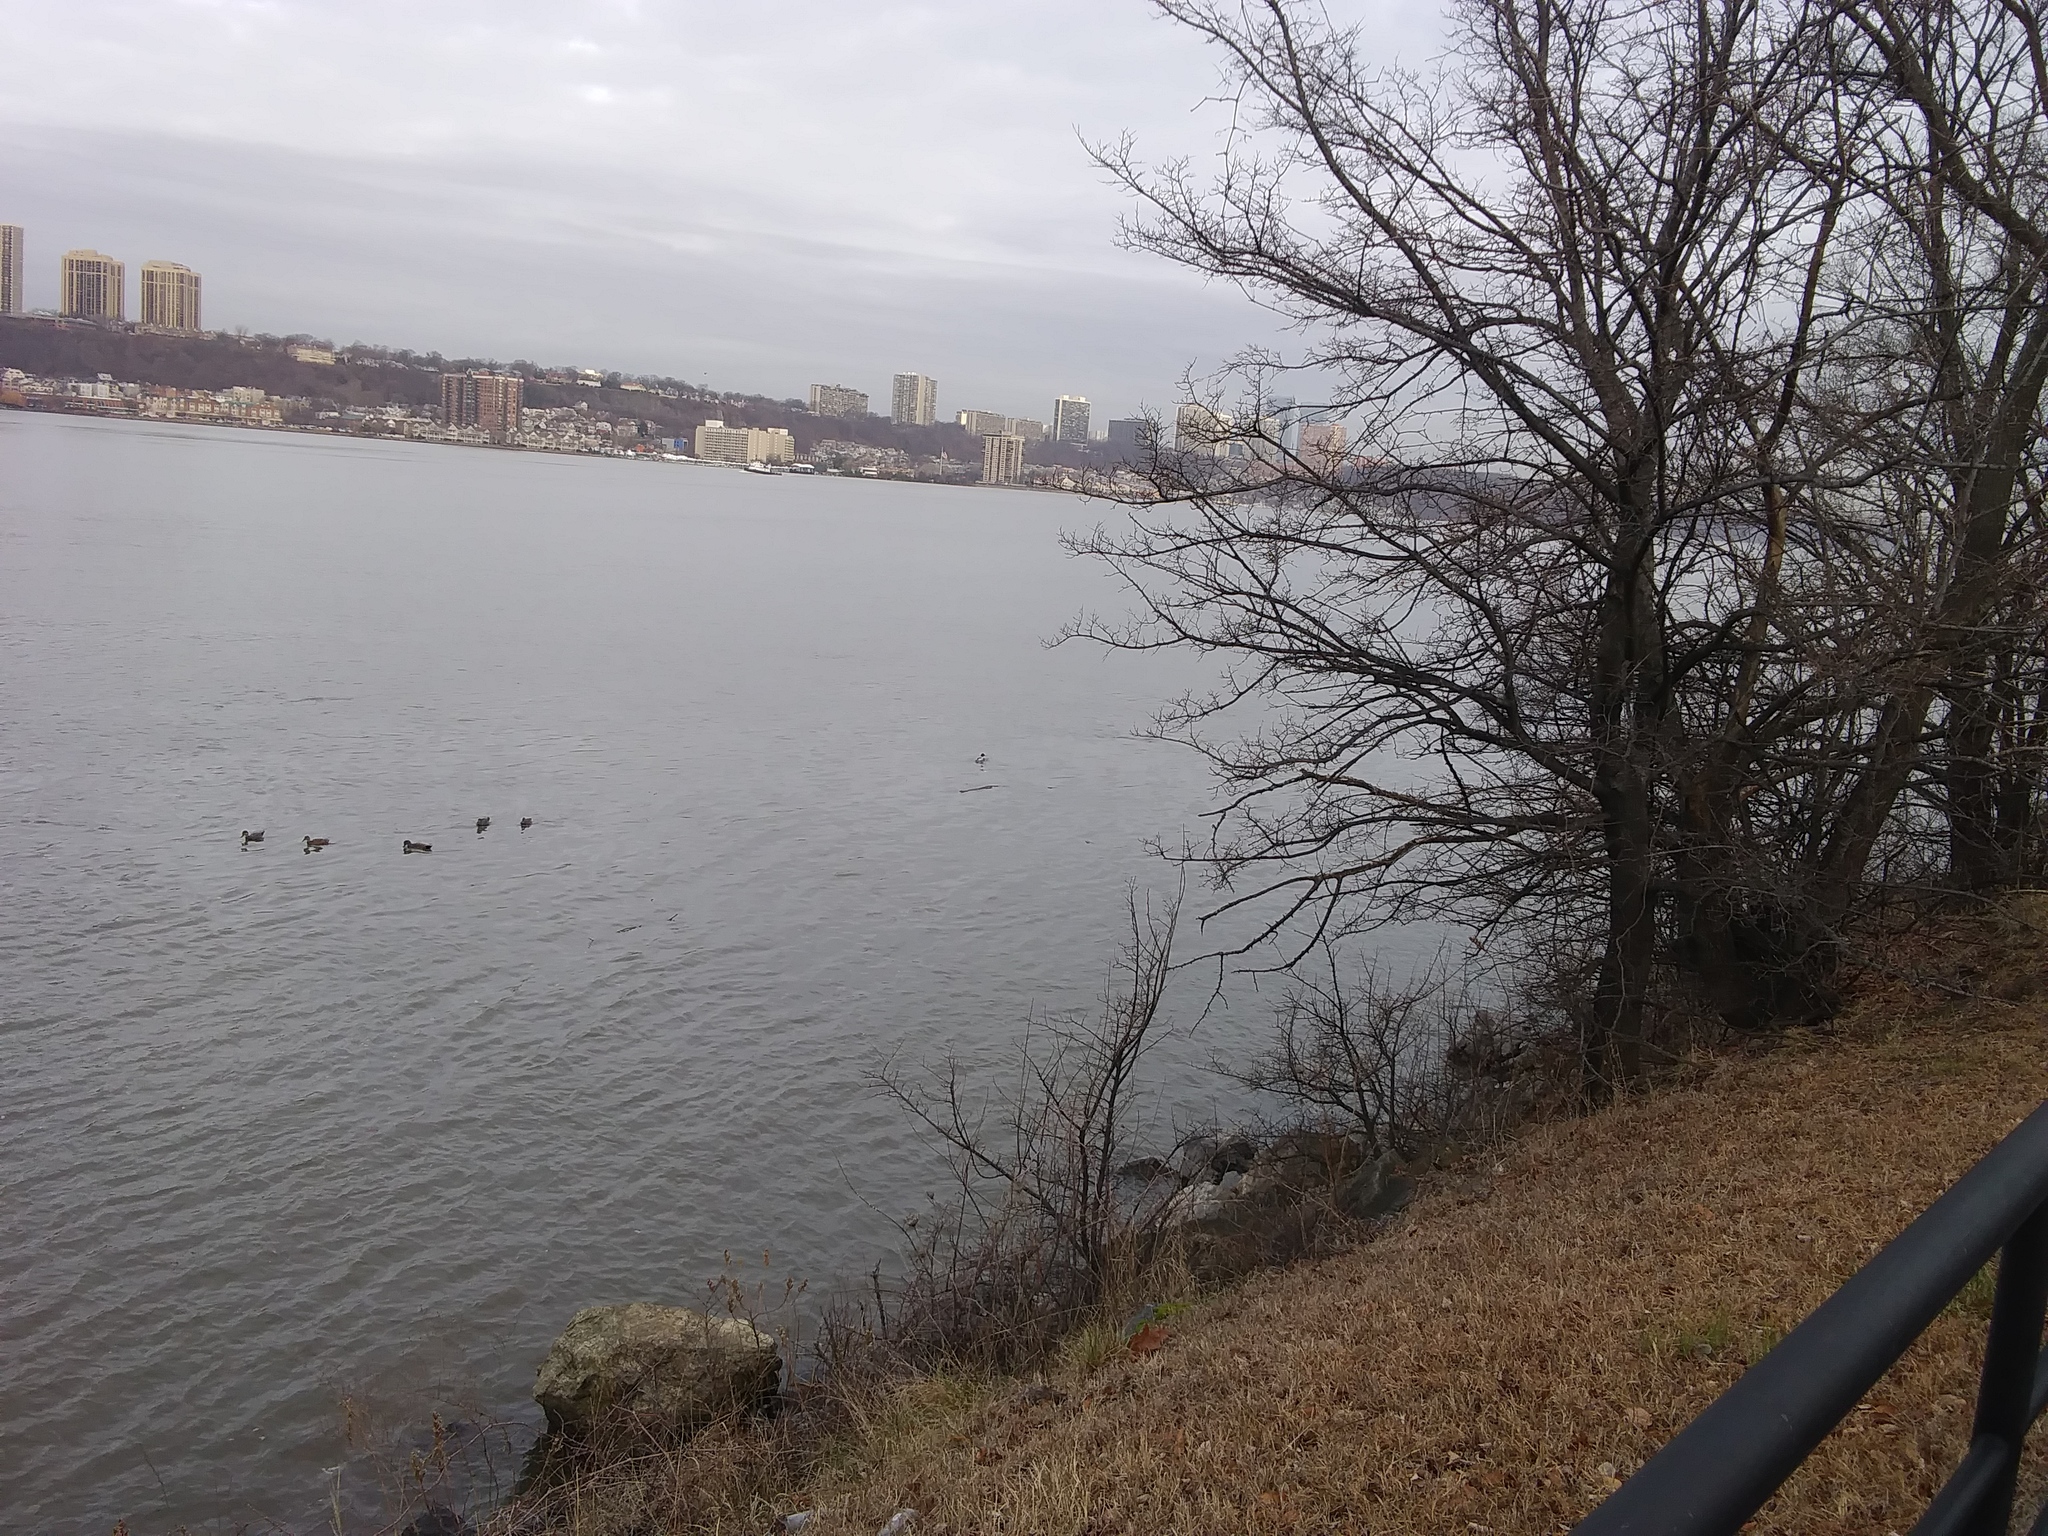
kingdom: Animalia
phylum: Chordata
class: Aves
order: Anseriformes
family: Anatidae
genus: Mergus
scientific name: Mergus merganser
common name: Common merganser
